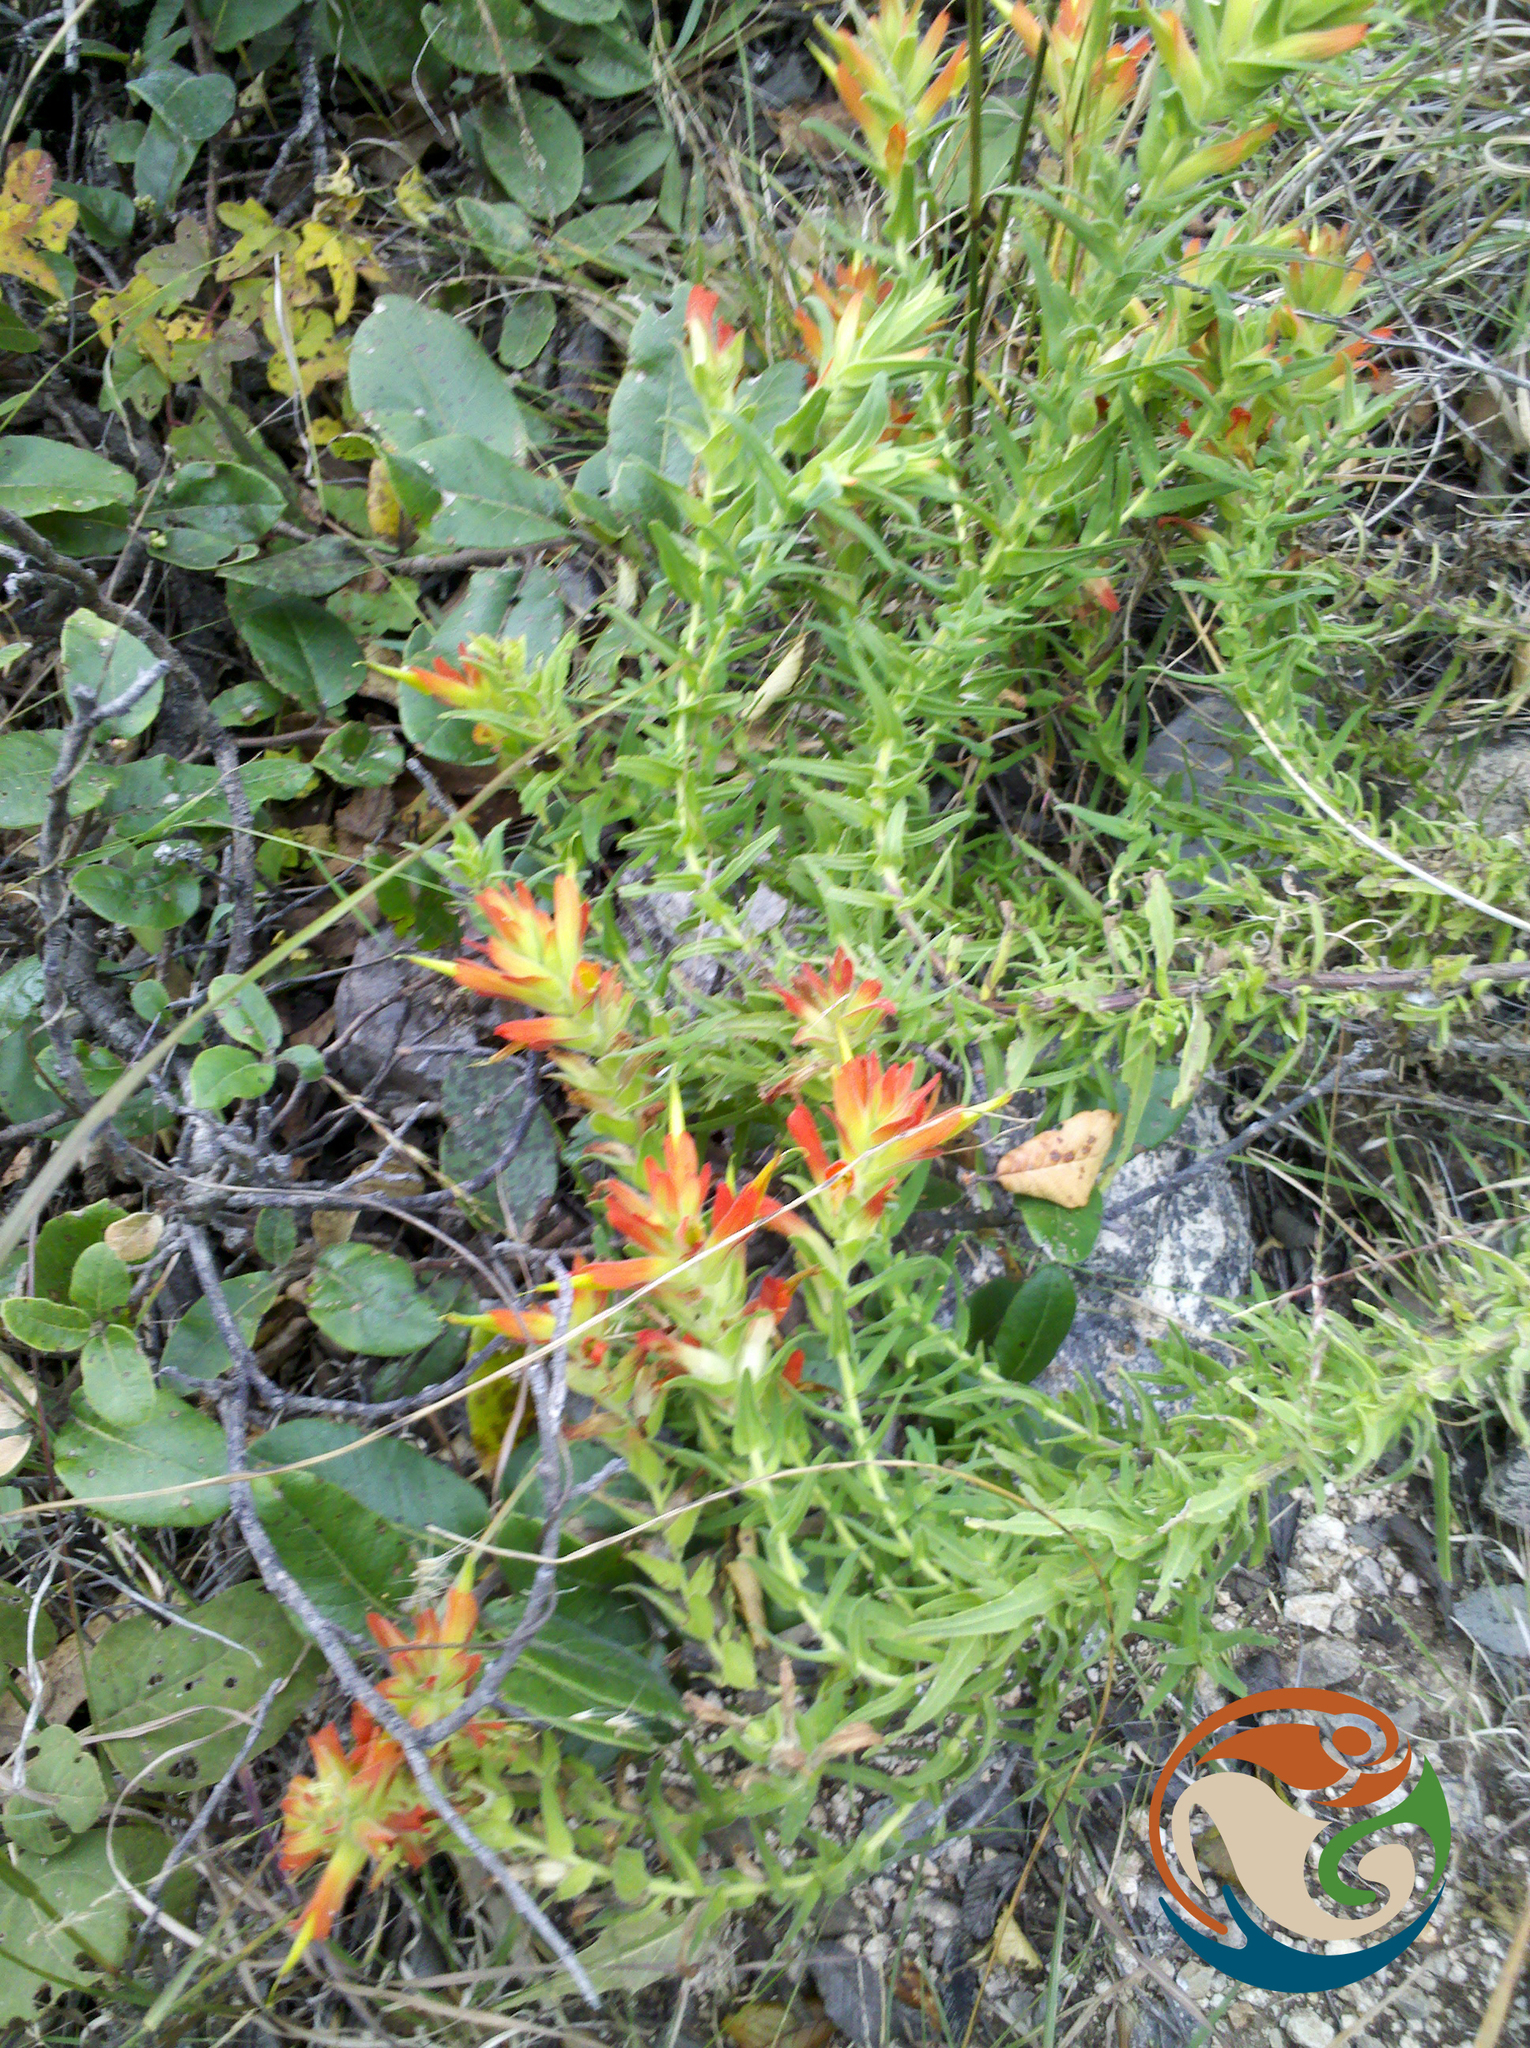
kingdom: Plantae
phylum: Tracheophyta
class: Magnoliopsida
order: Lamiales
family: Orobanchaceae
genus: Castilleja
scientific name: Castilleja auriculata
